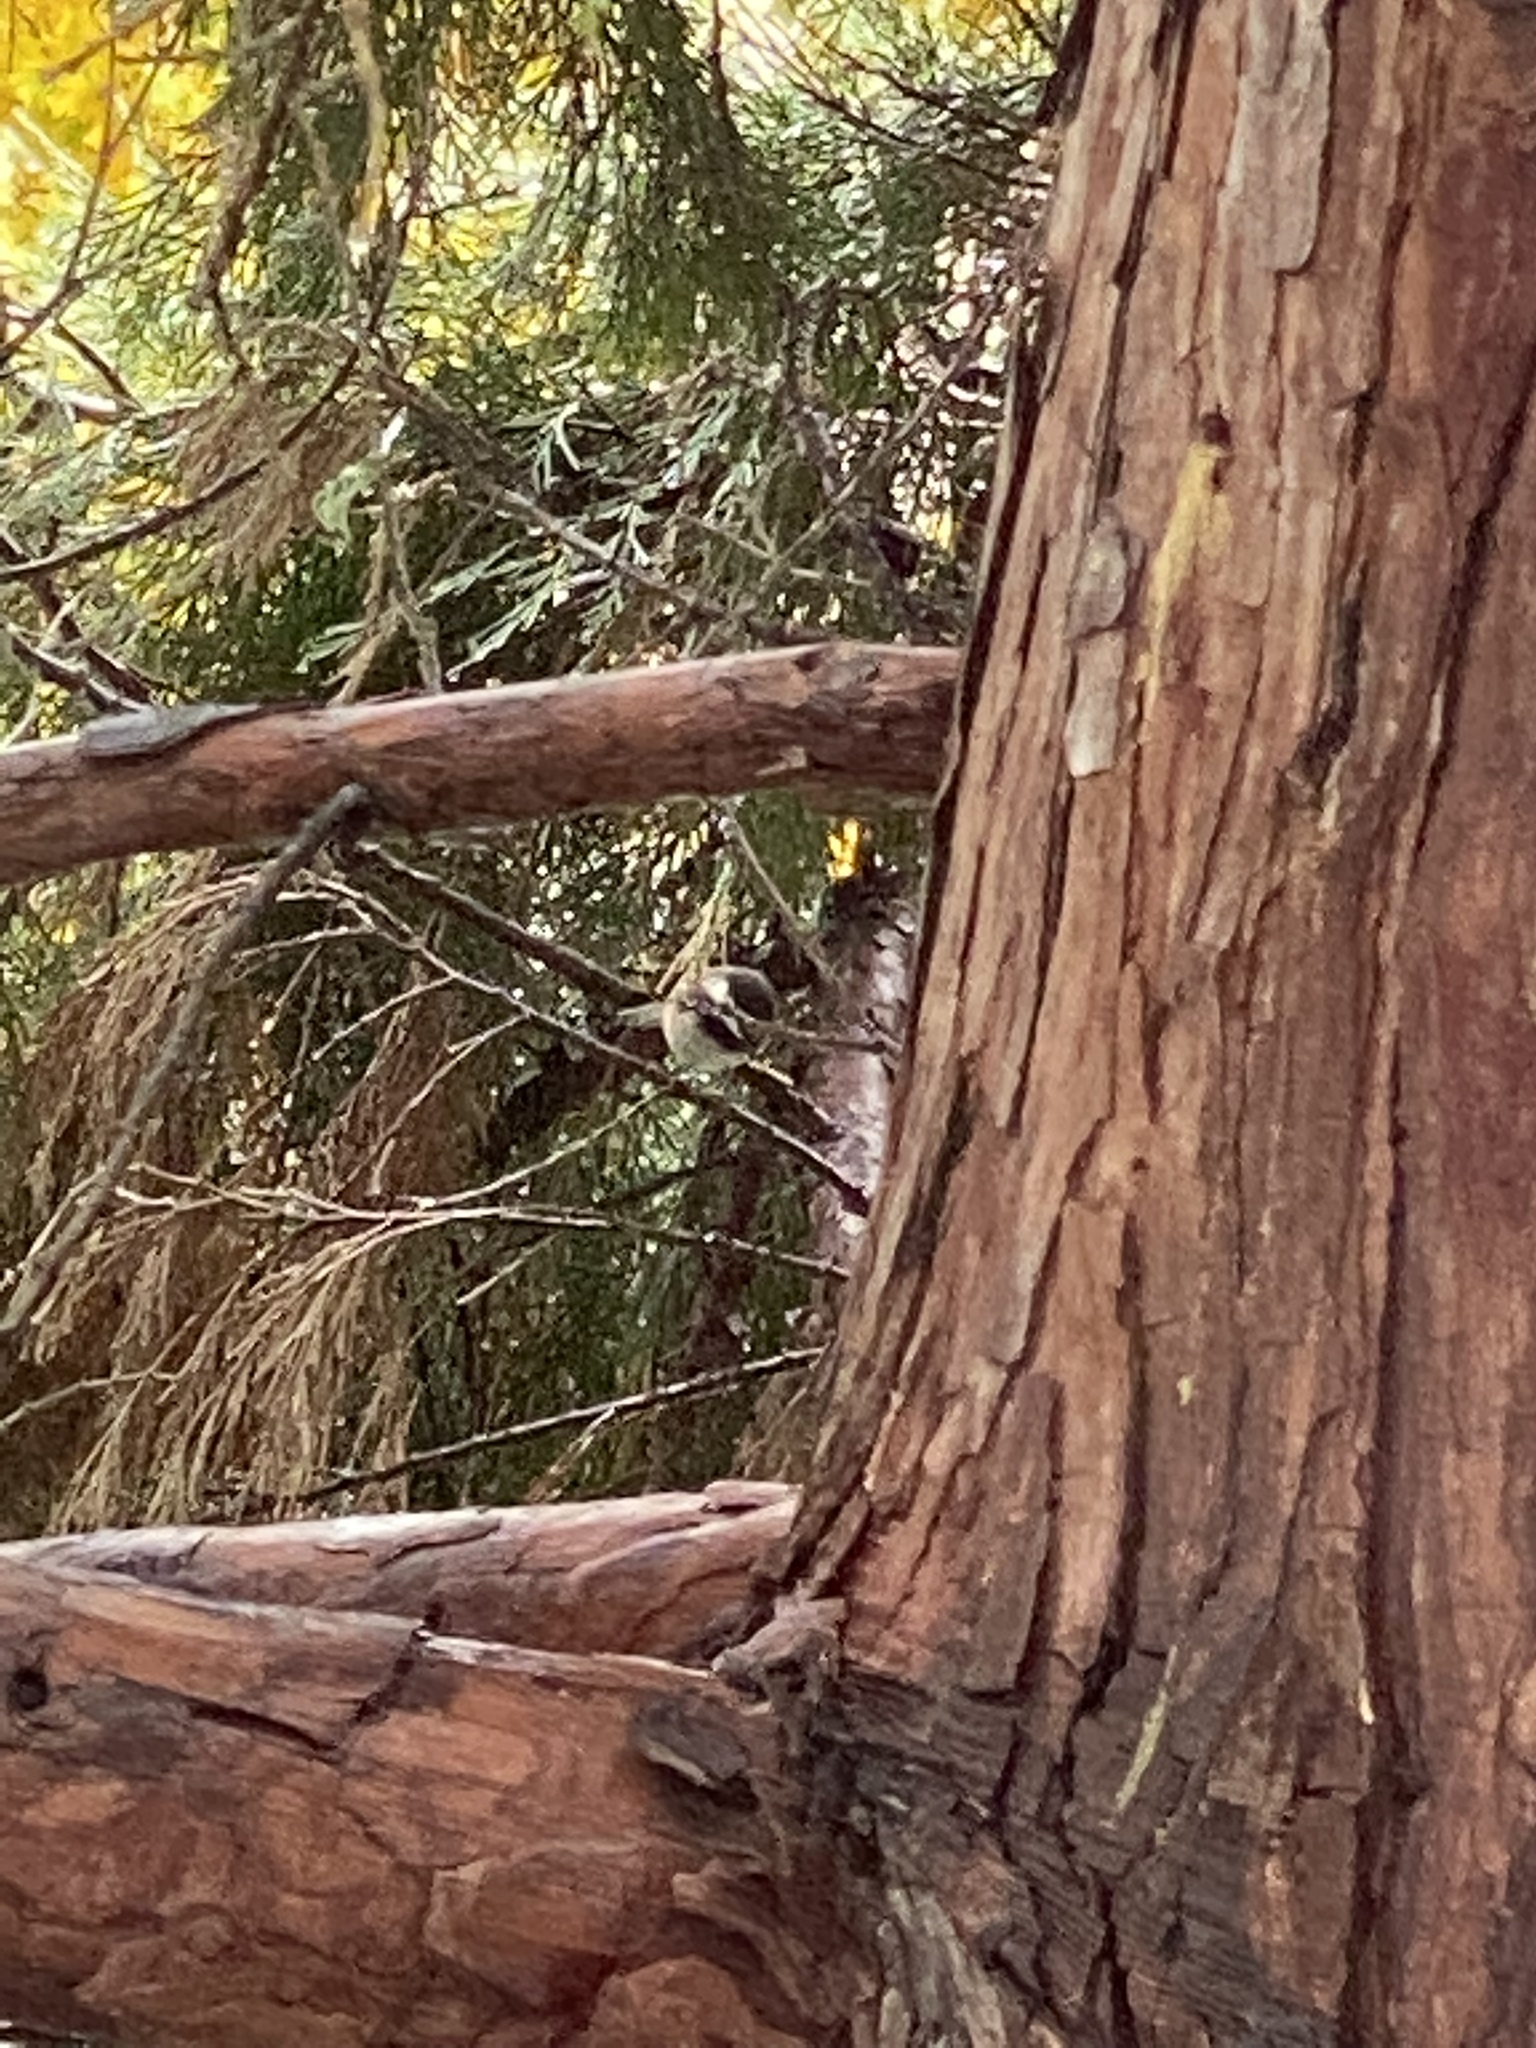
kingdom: Animalia
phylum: Chordata
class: Aves
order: Passeriformes
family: Paridae
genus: Poecile
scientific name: Poecile rufescens
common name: Chestnut-backed chickadee
